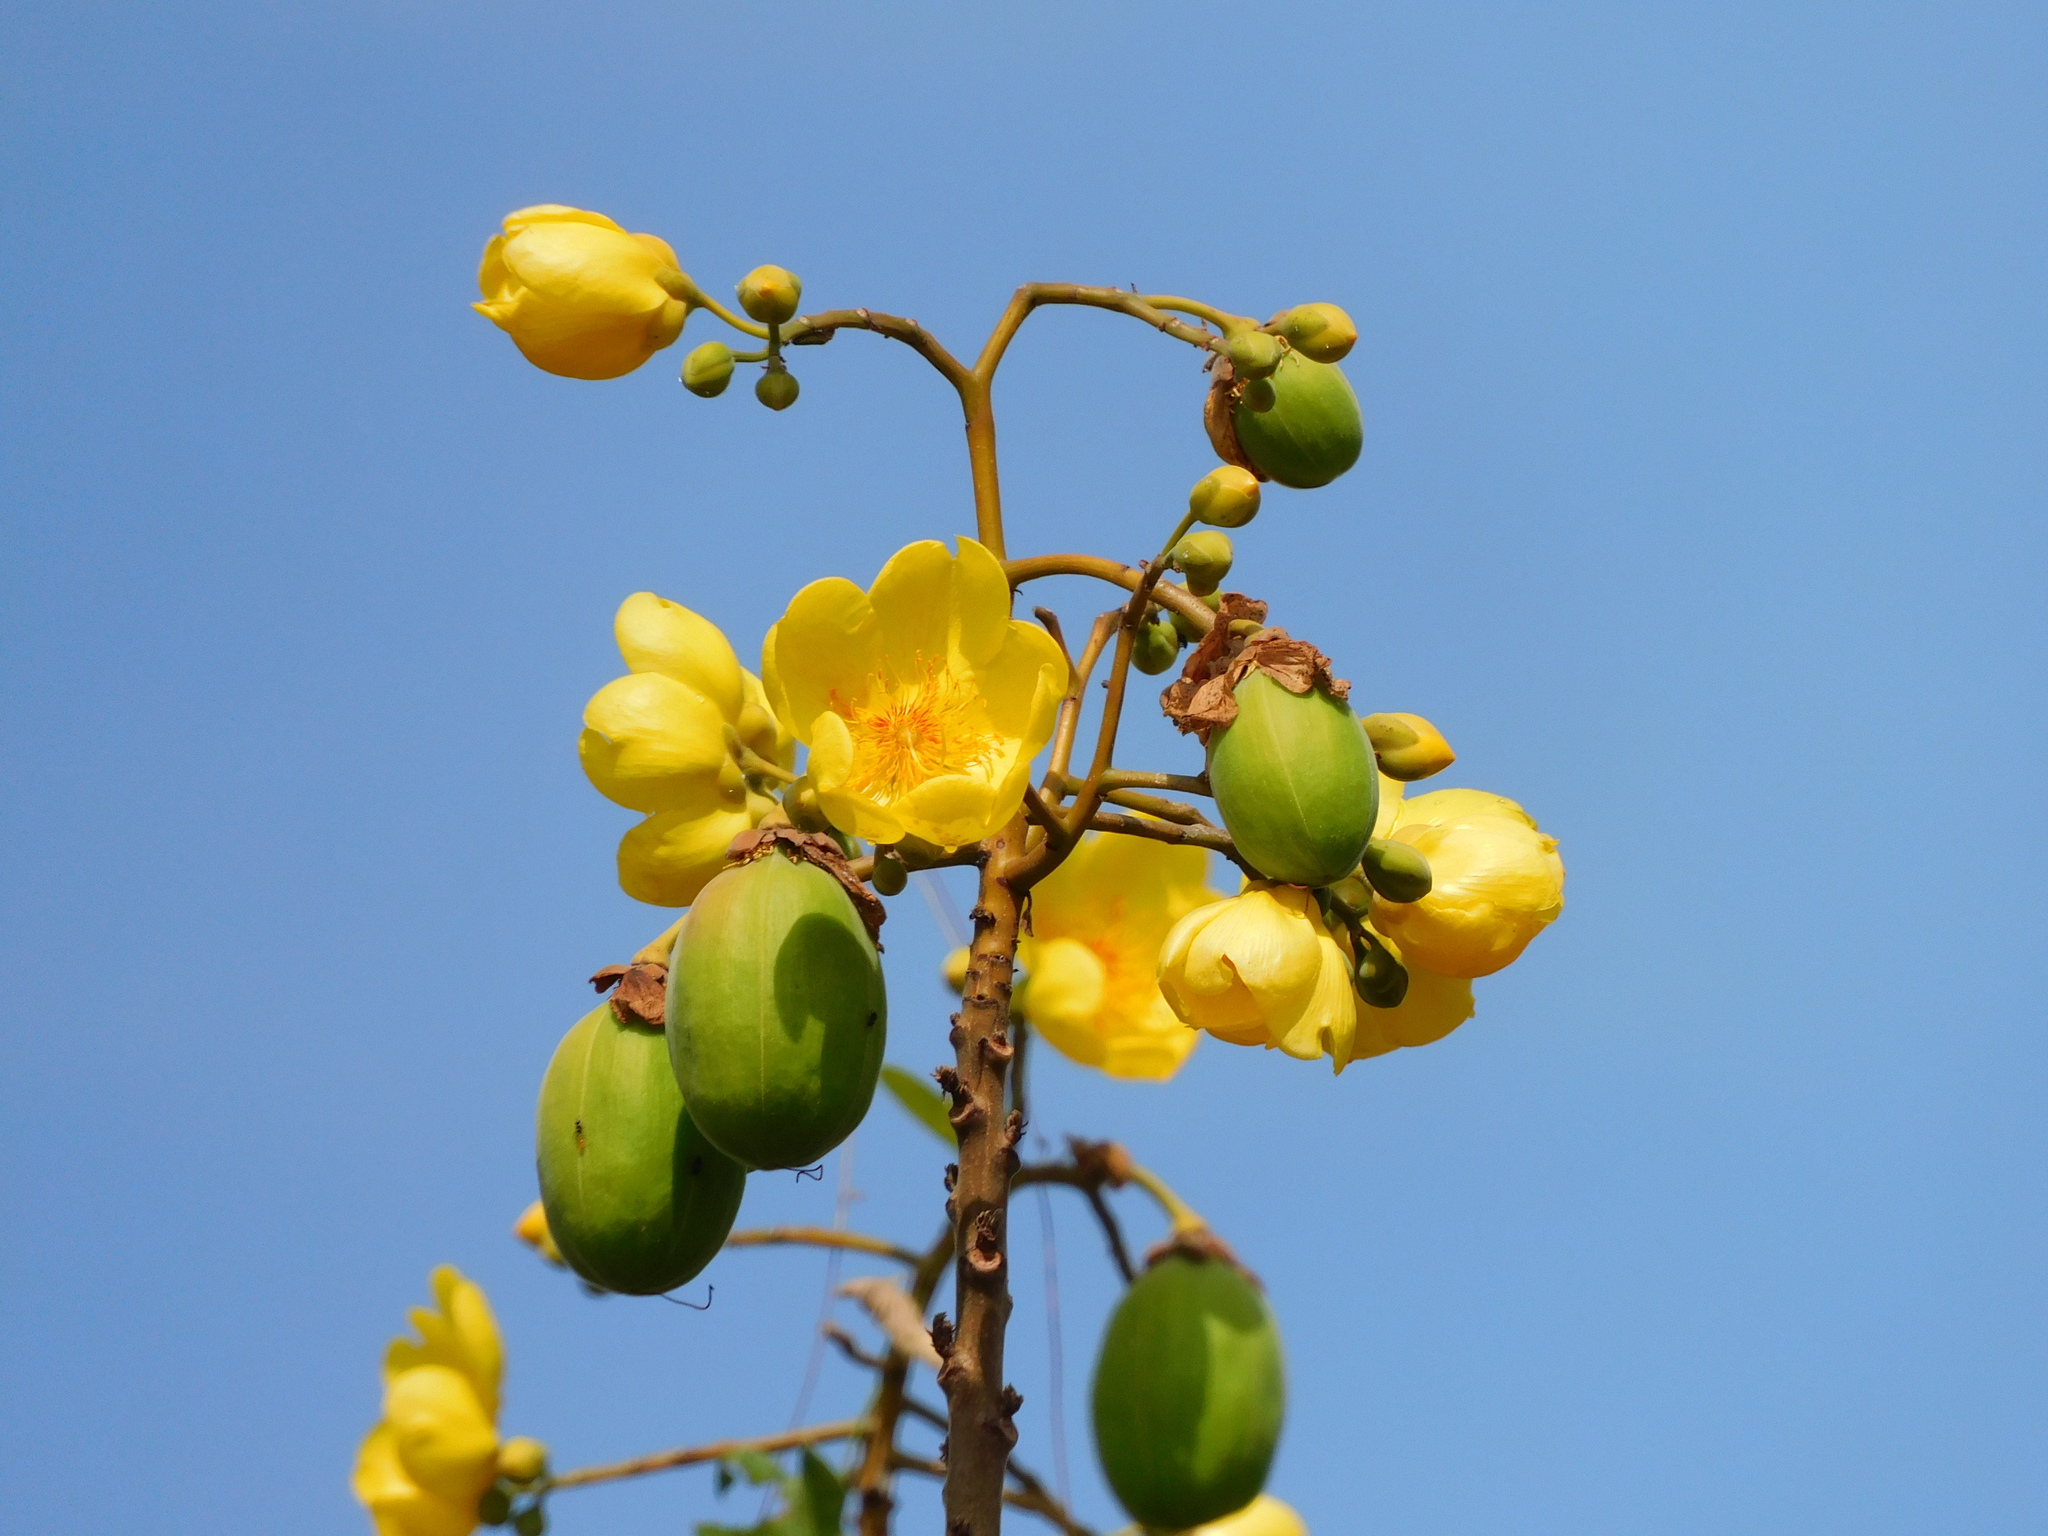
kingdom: Plantae
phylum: Tracheophyta
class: Magnoliopsida
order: Malvales
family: Cochlospermaceae
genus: Cochlospermum
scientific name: Cochlospermum vitifolium
